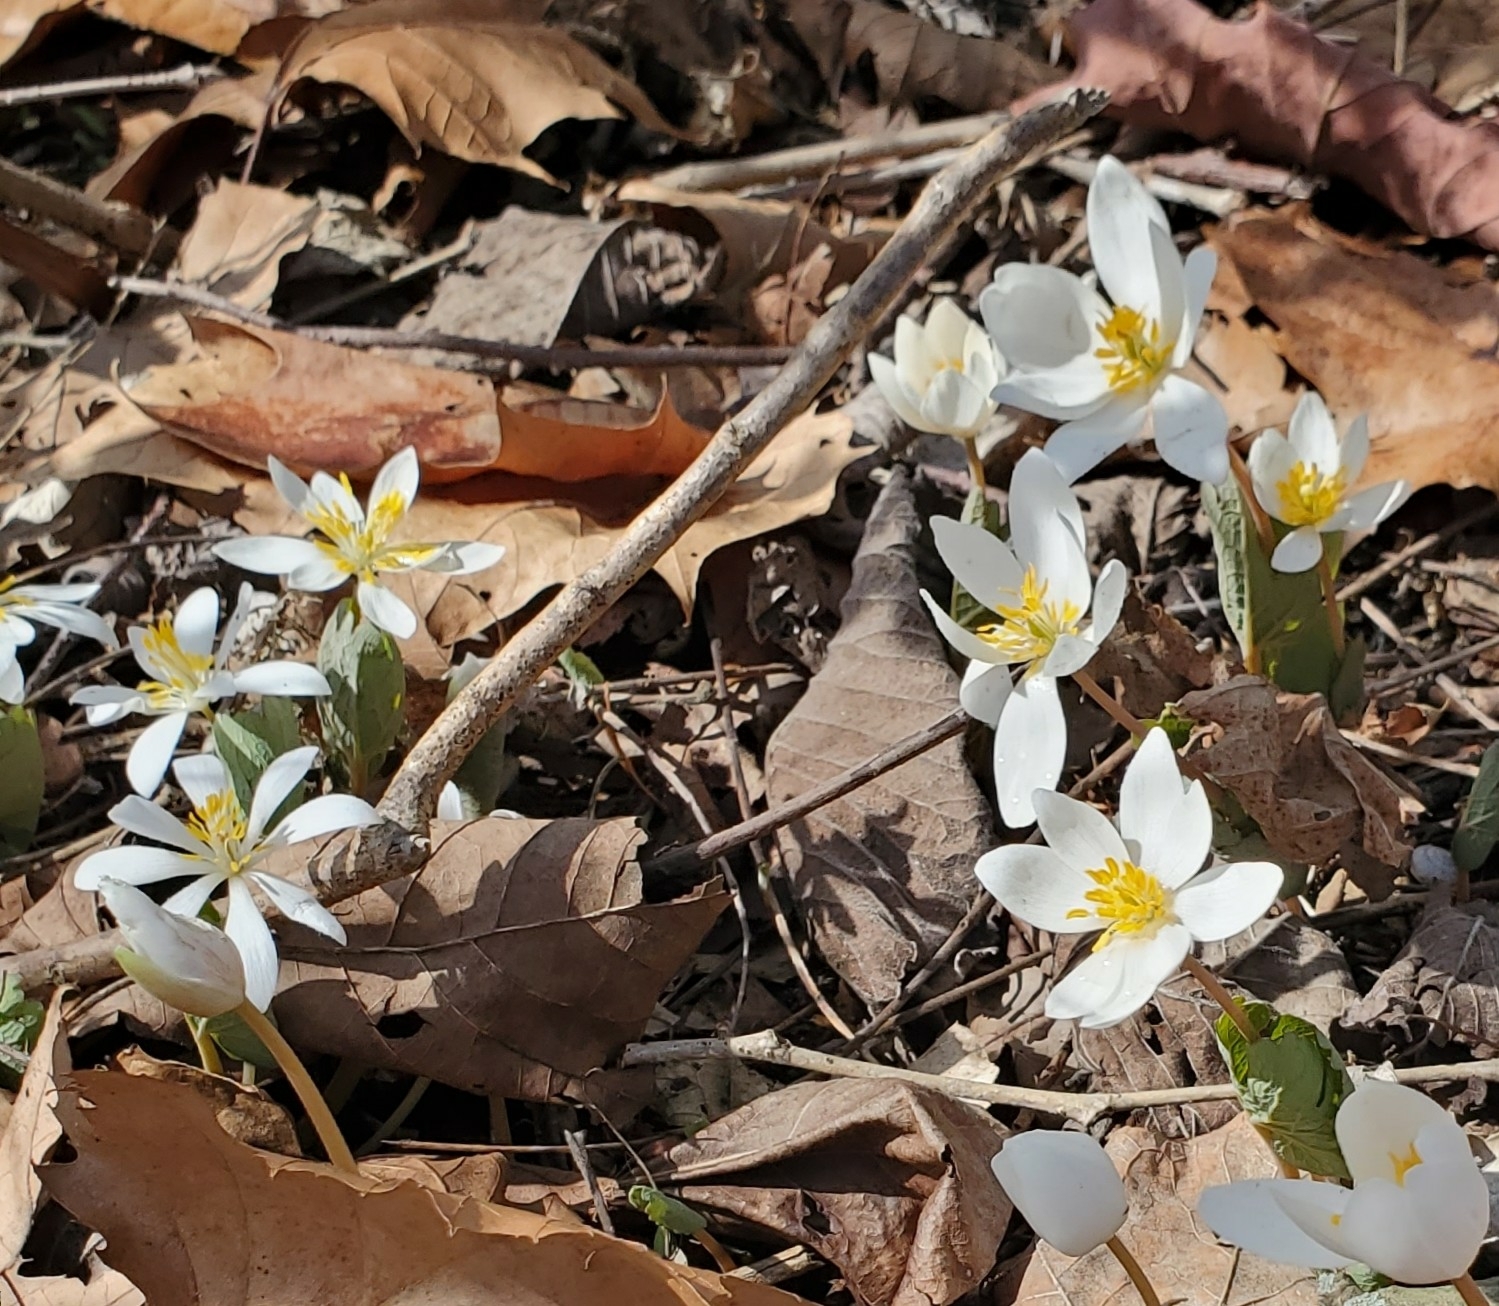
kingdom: Plantae
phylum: Tracheophyta
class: Magnoliopsida
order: Ranunculales
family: Papaveraceae
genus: Sanguinaria
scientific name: Sanguinaria canadensis
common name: Bloodroot
